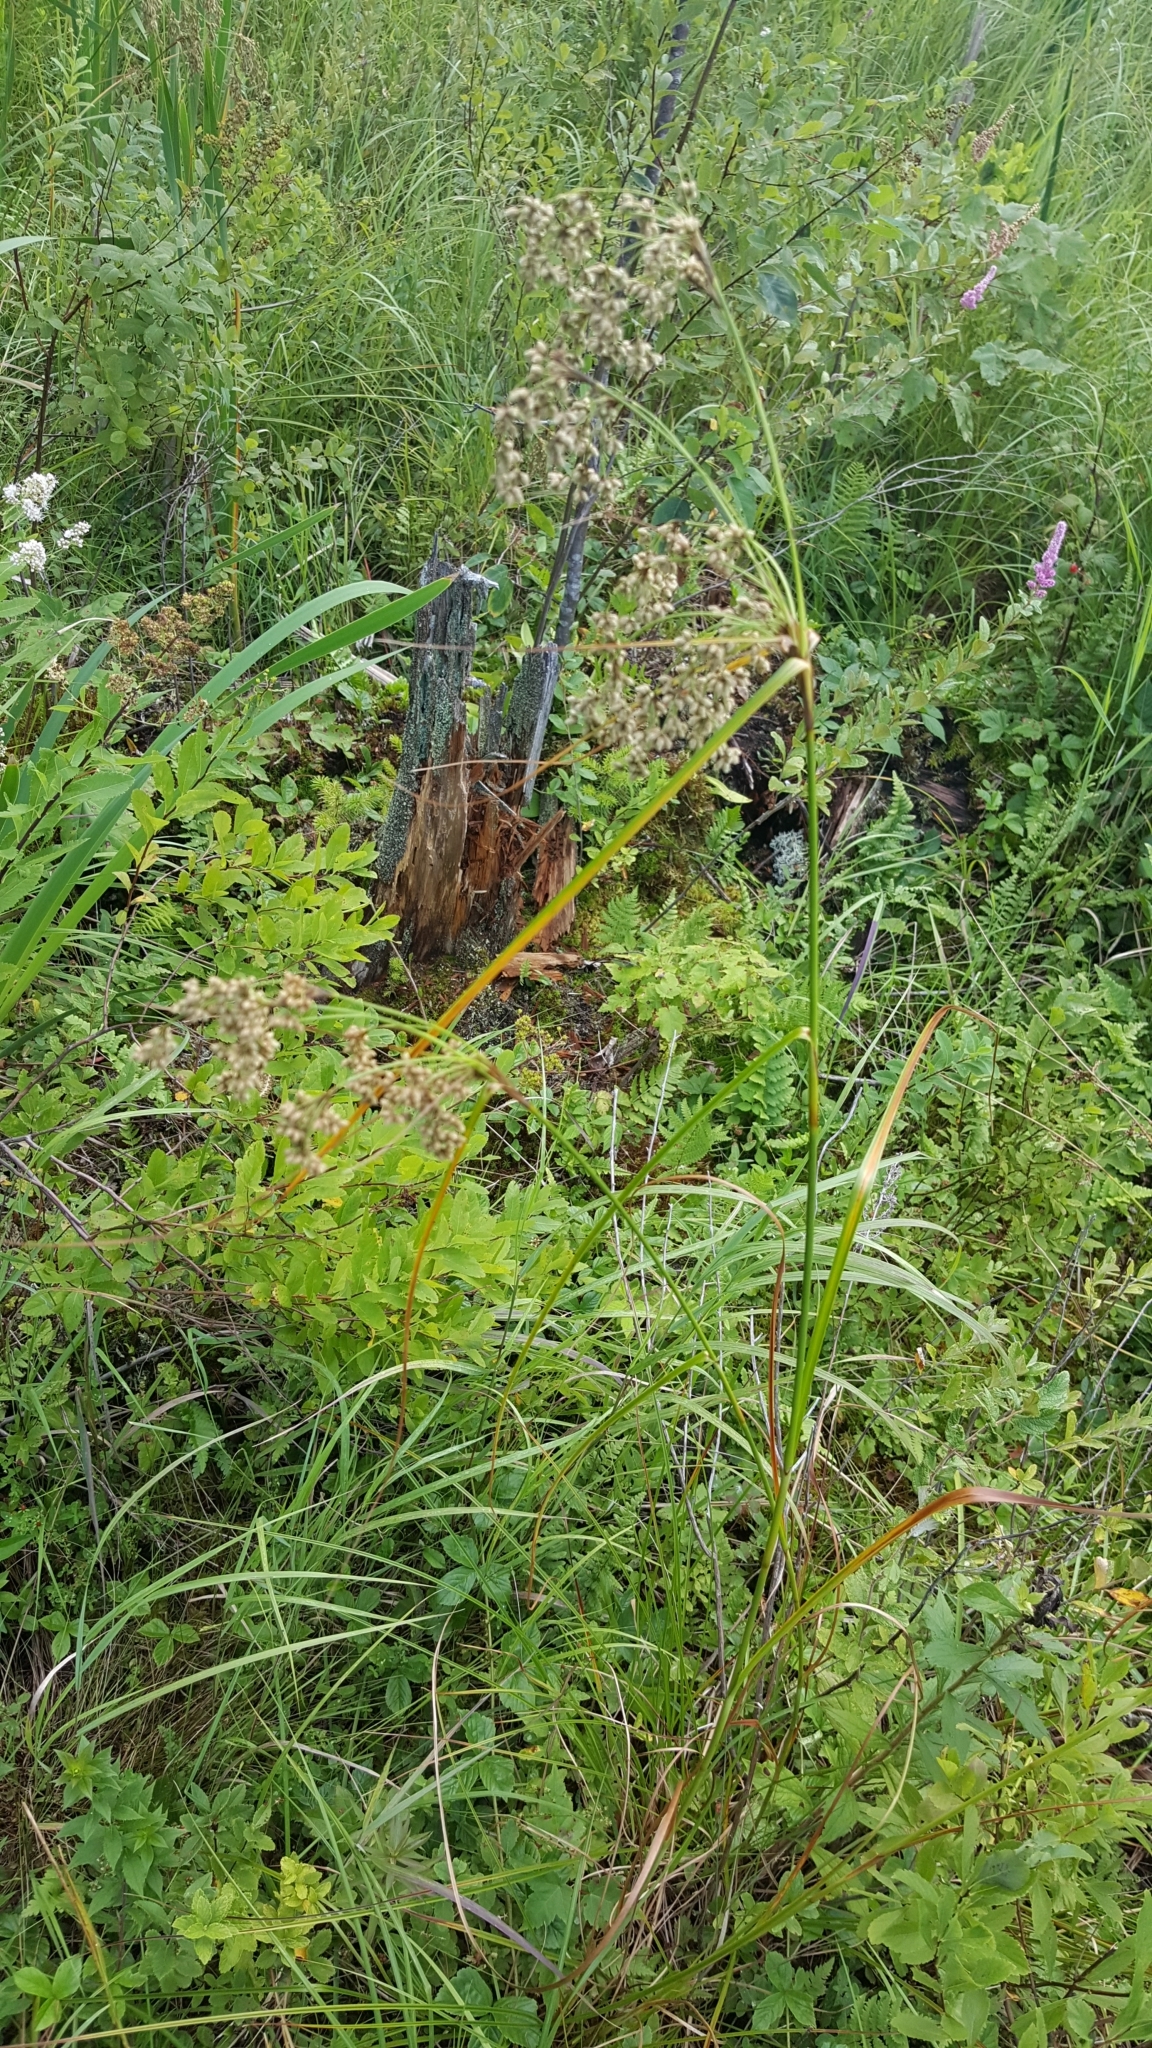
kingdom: Plantae
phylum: Tracheophyta
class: Liliopsida
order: Poales
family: Cyperaceae
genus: Scirpus
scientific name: Scirpus cyperinus
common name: Black-sheathed bulrush
